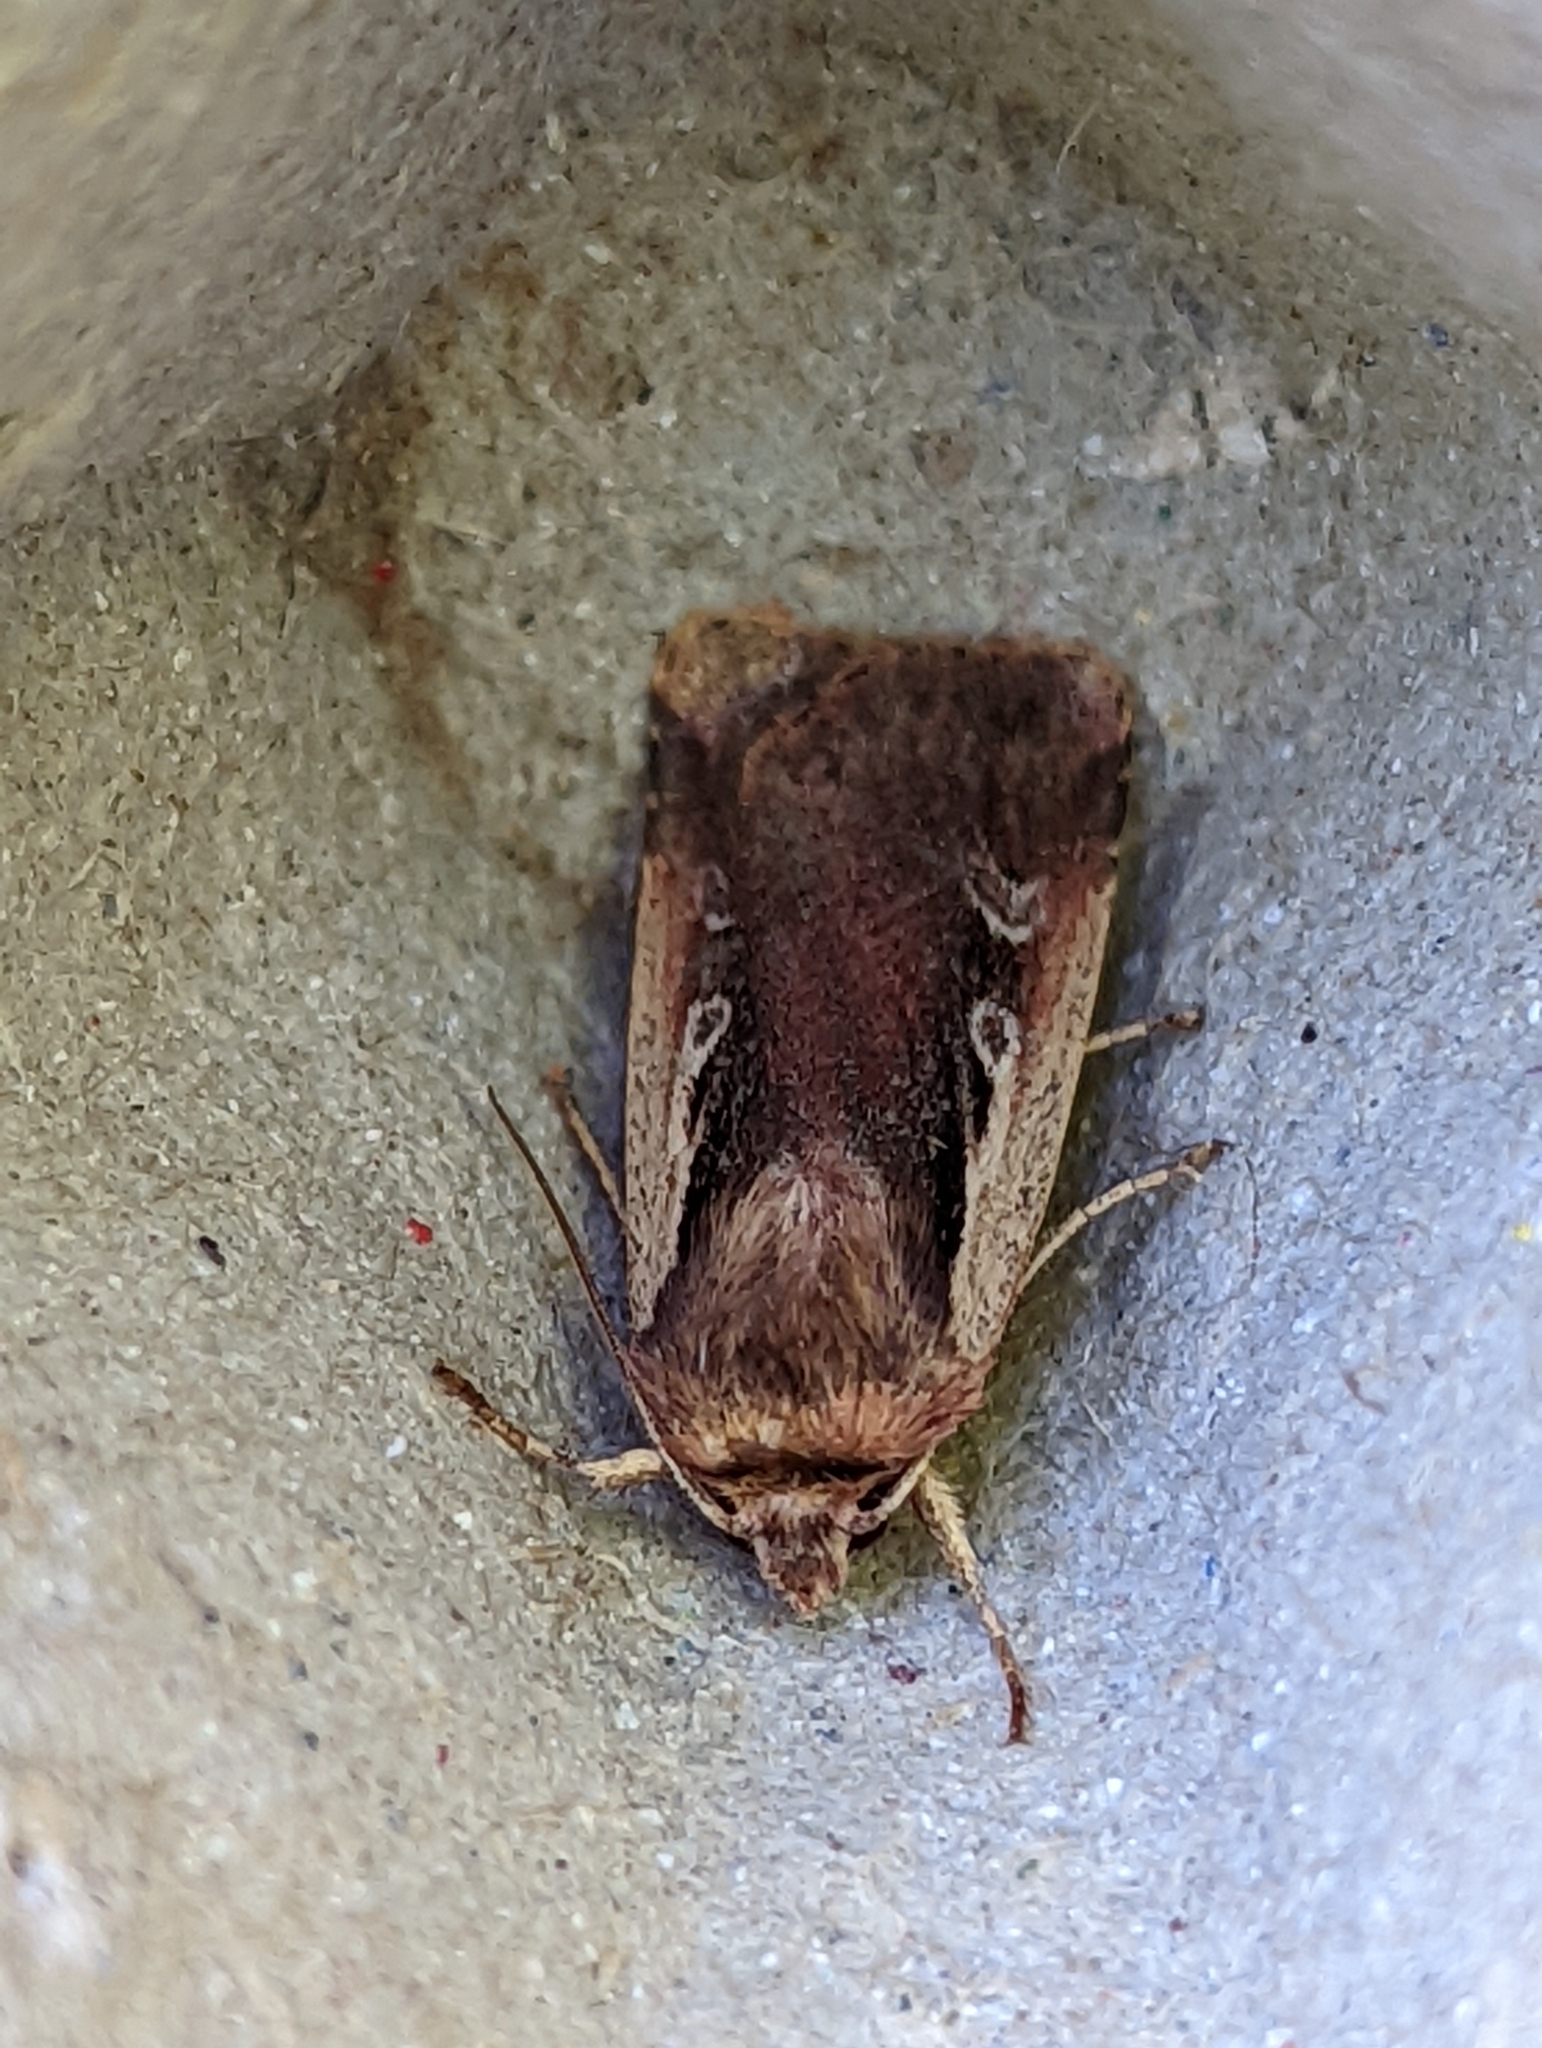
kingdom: Animalia
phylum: Arthropoda
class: Insecta
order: Lepidoptera
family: Noctuidae
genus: Ochropleura
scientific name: Ochropleura plecta
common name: Flame shoulder
